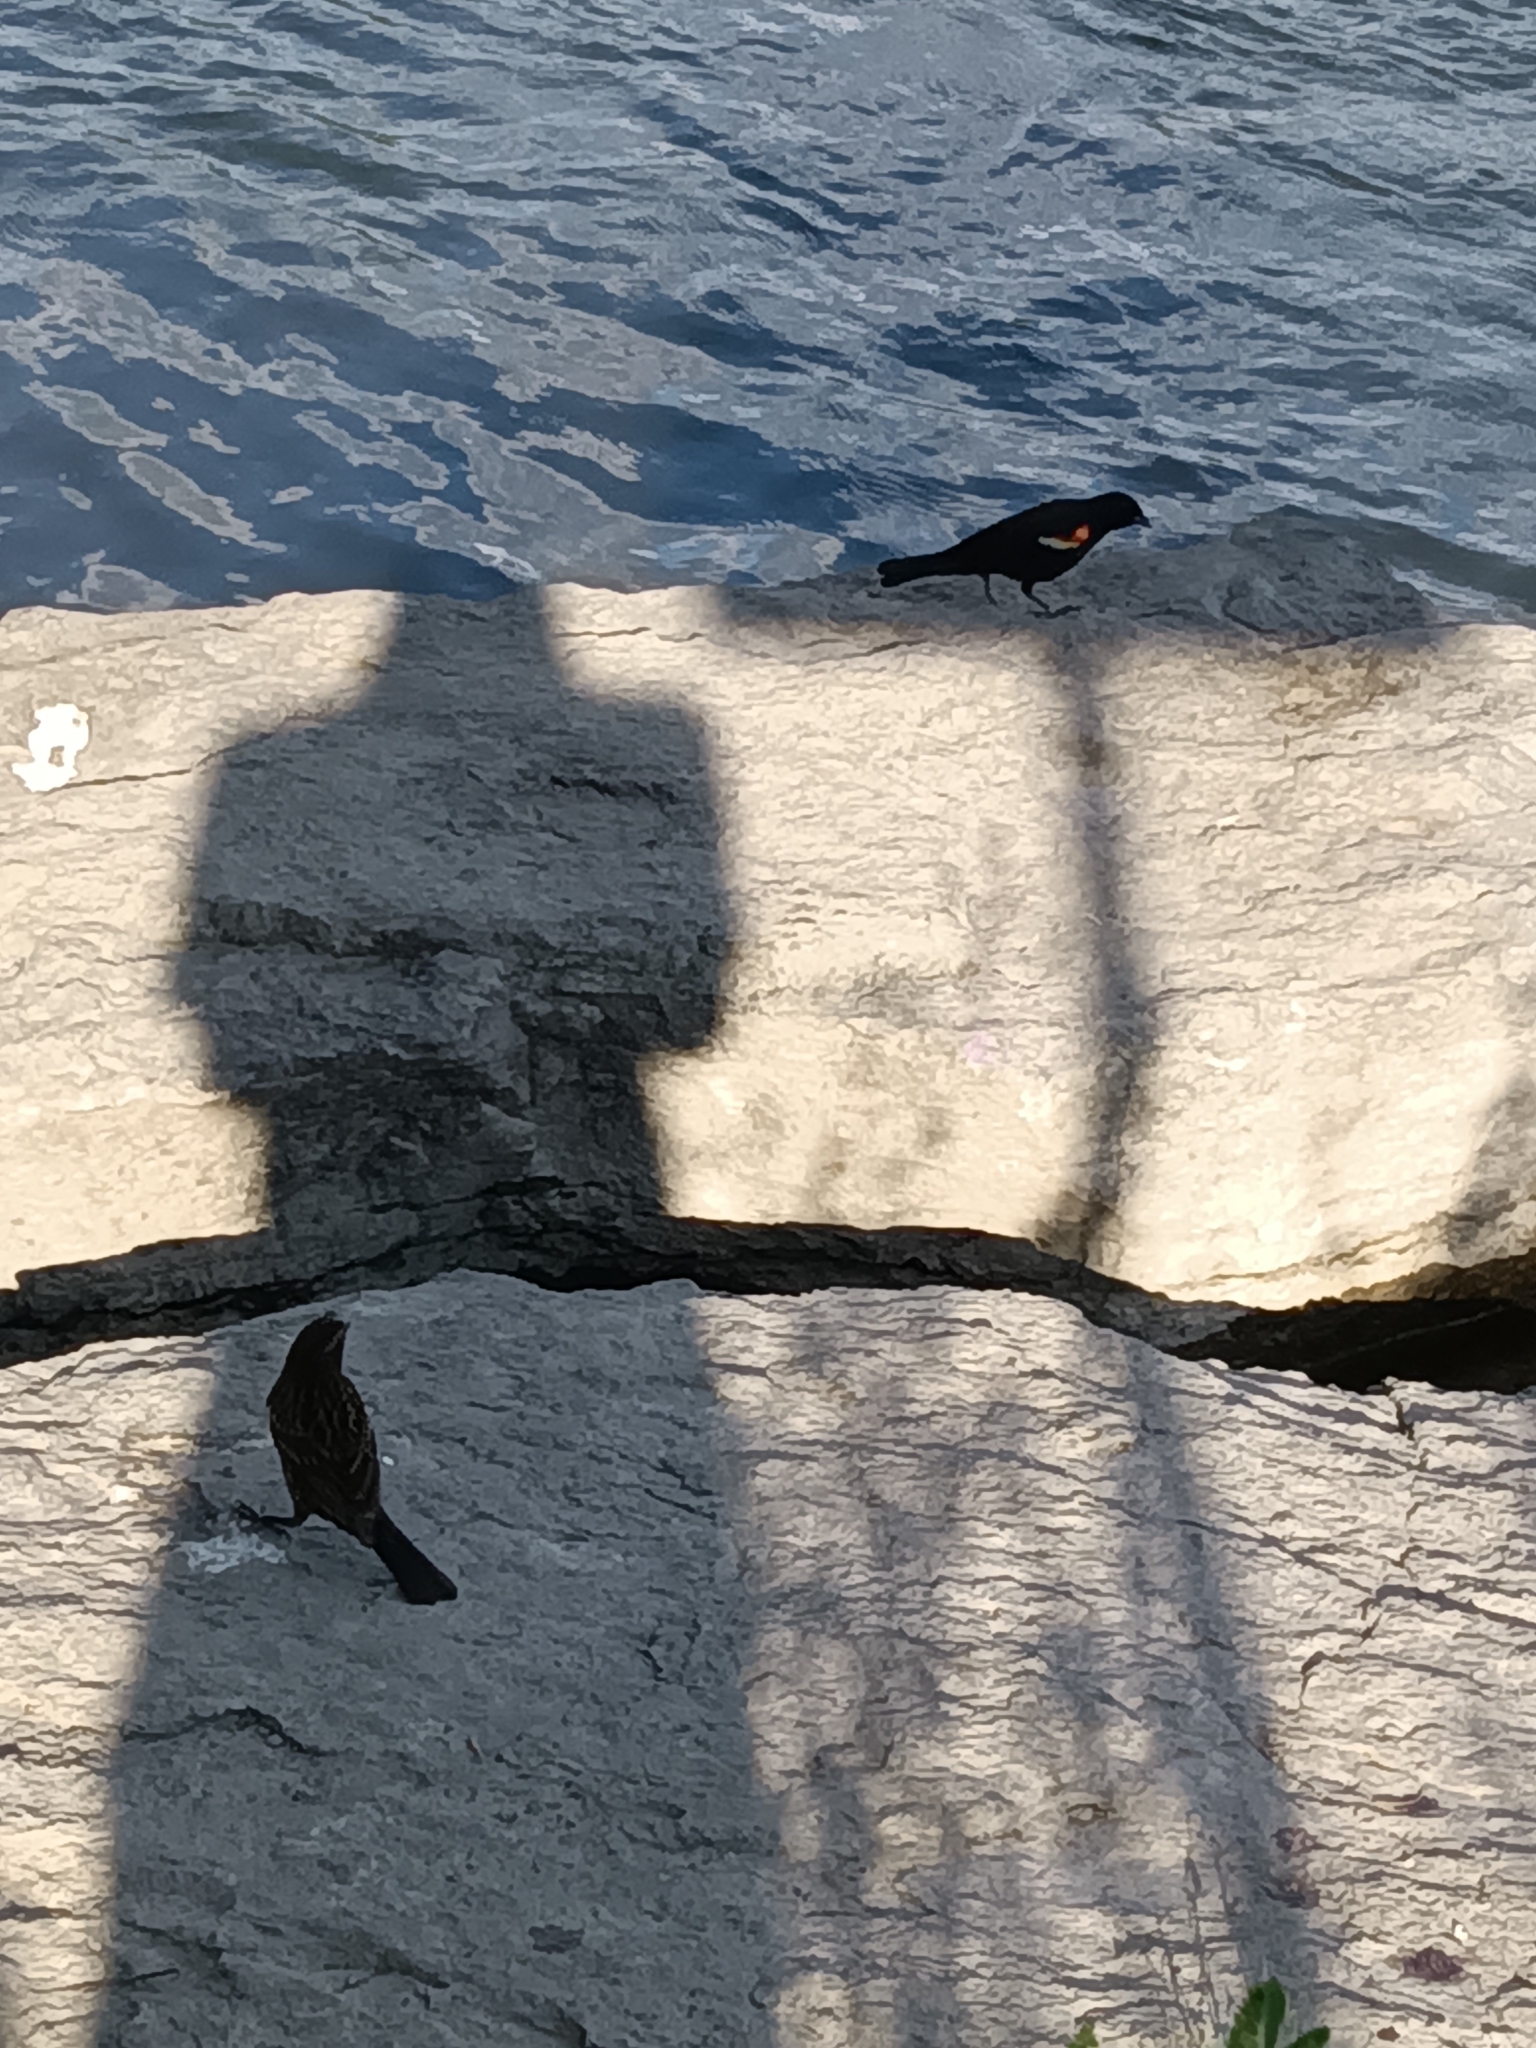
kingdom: Animalia
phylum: Chordata
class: Aves
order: Passeriformes
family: Icteridae
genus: Agelaius
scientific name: Agelaius phoeniceus
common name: Red-winged blackbird
